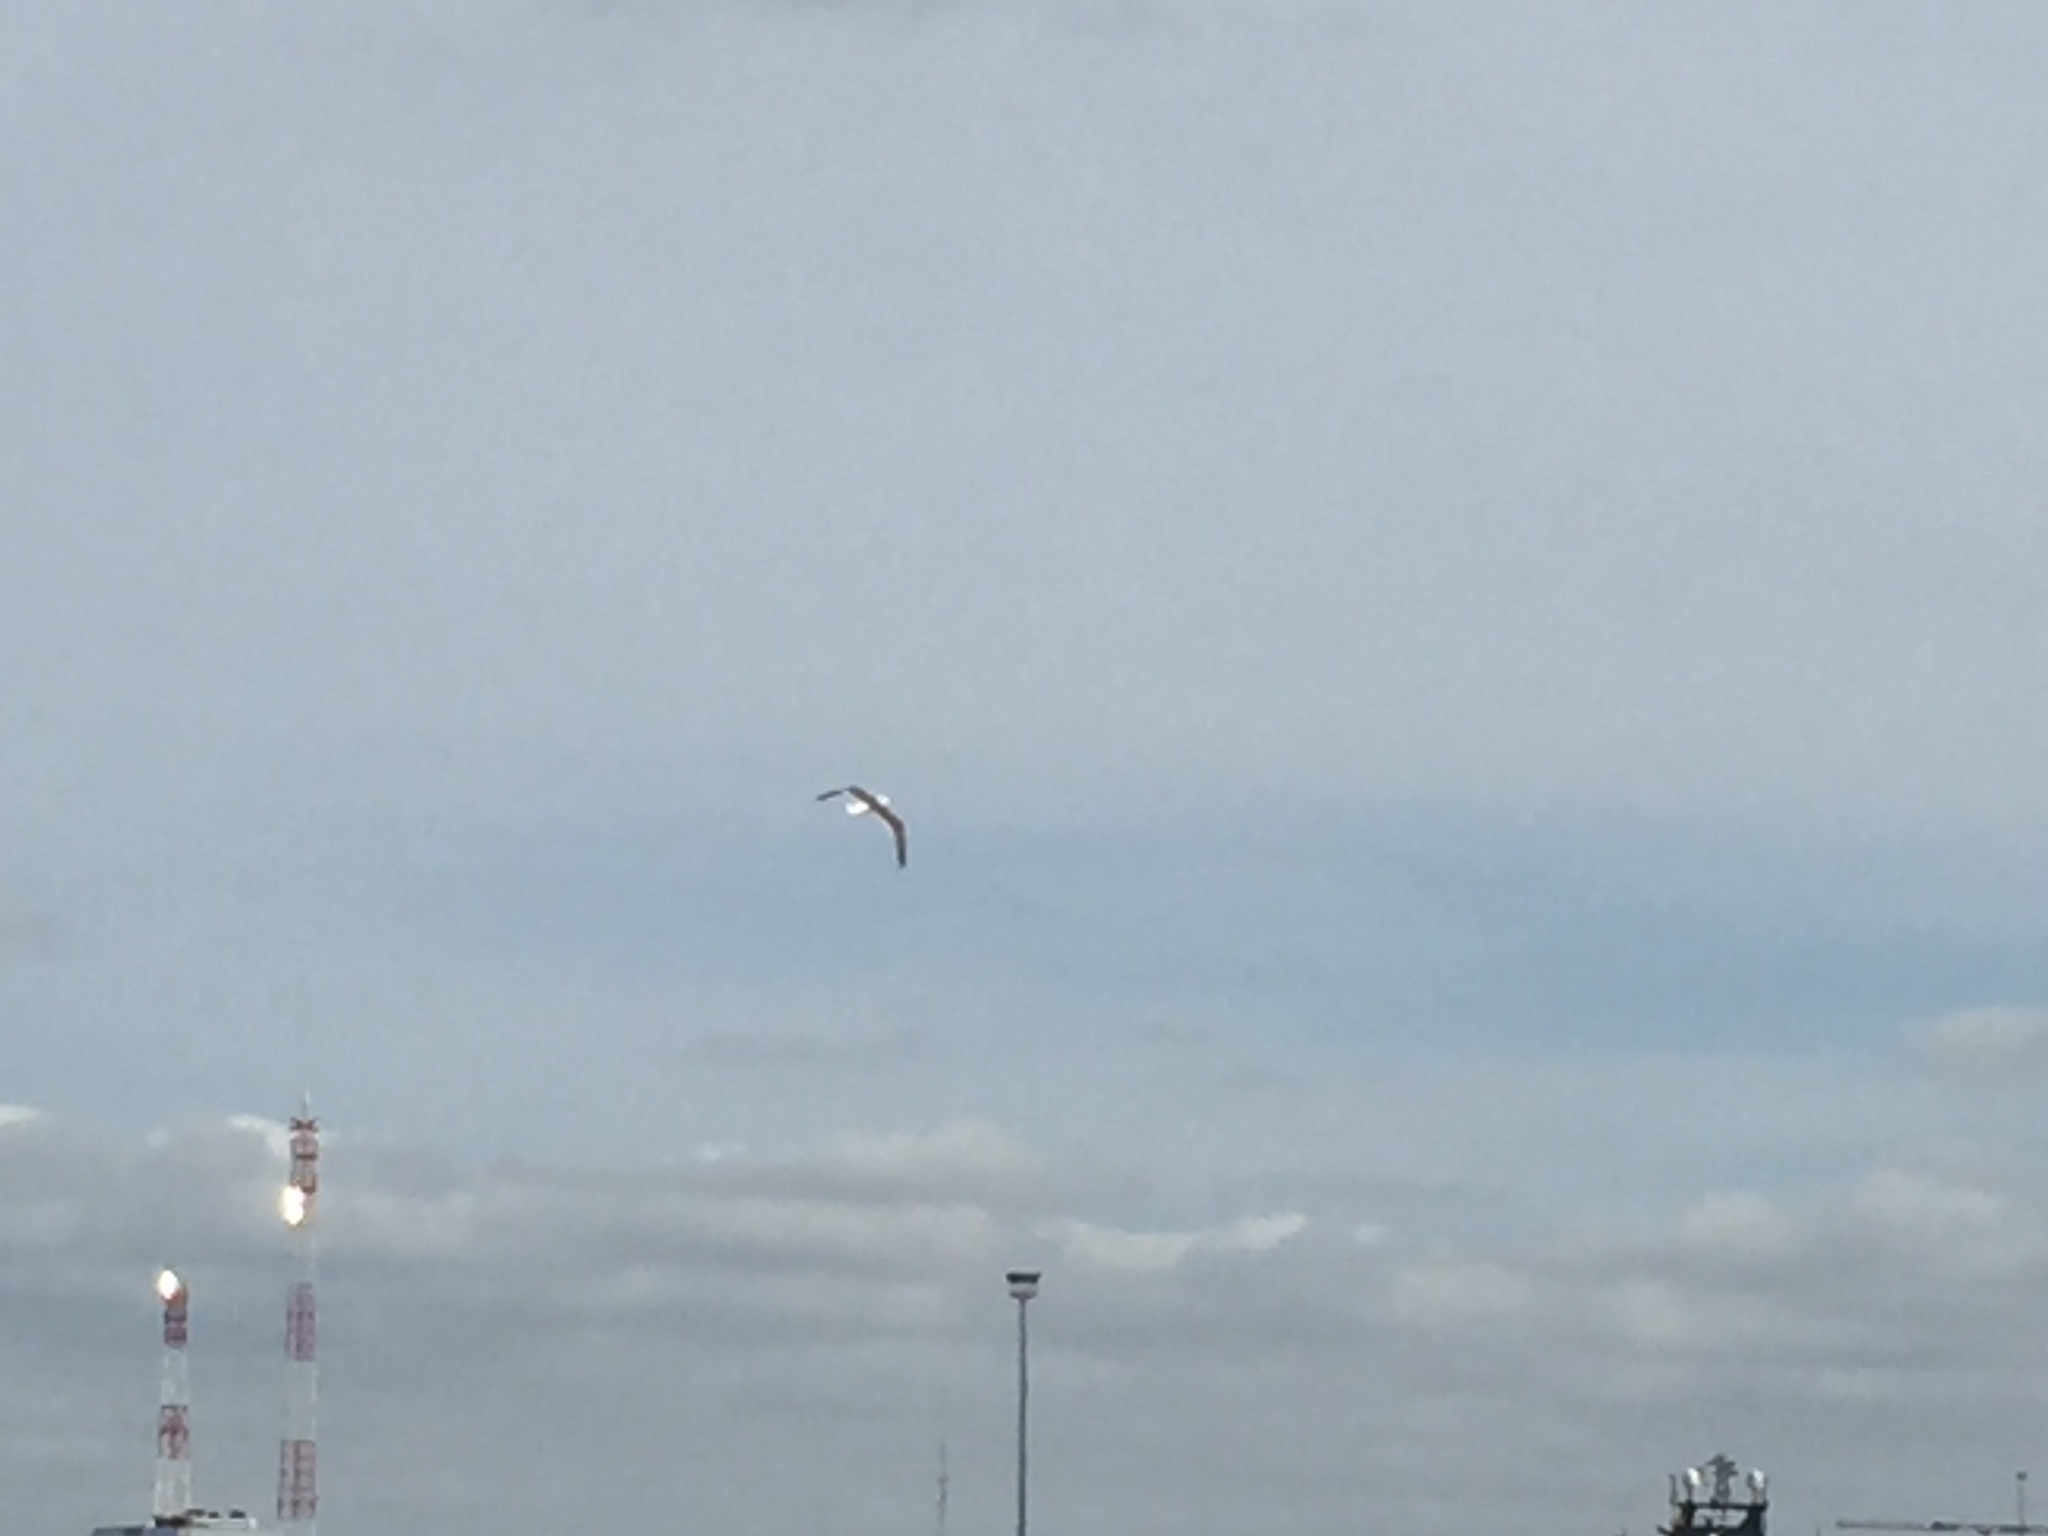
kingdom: Animalia
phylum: Chordata
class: Aves
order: Charadriiformes
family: Laridae
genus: Larus
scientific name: Larus fuscus
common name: Lesser black-backed gull
